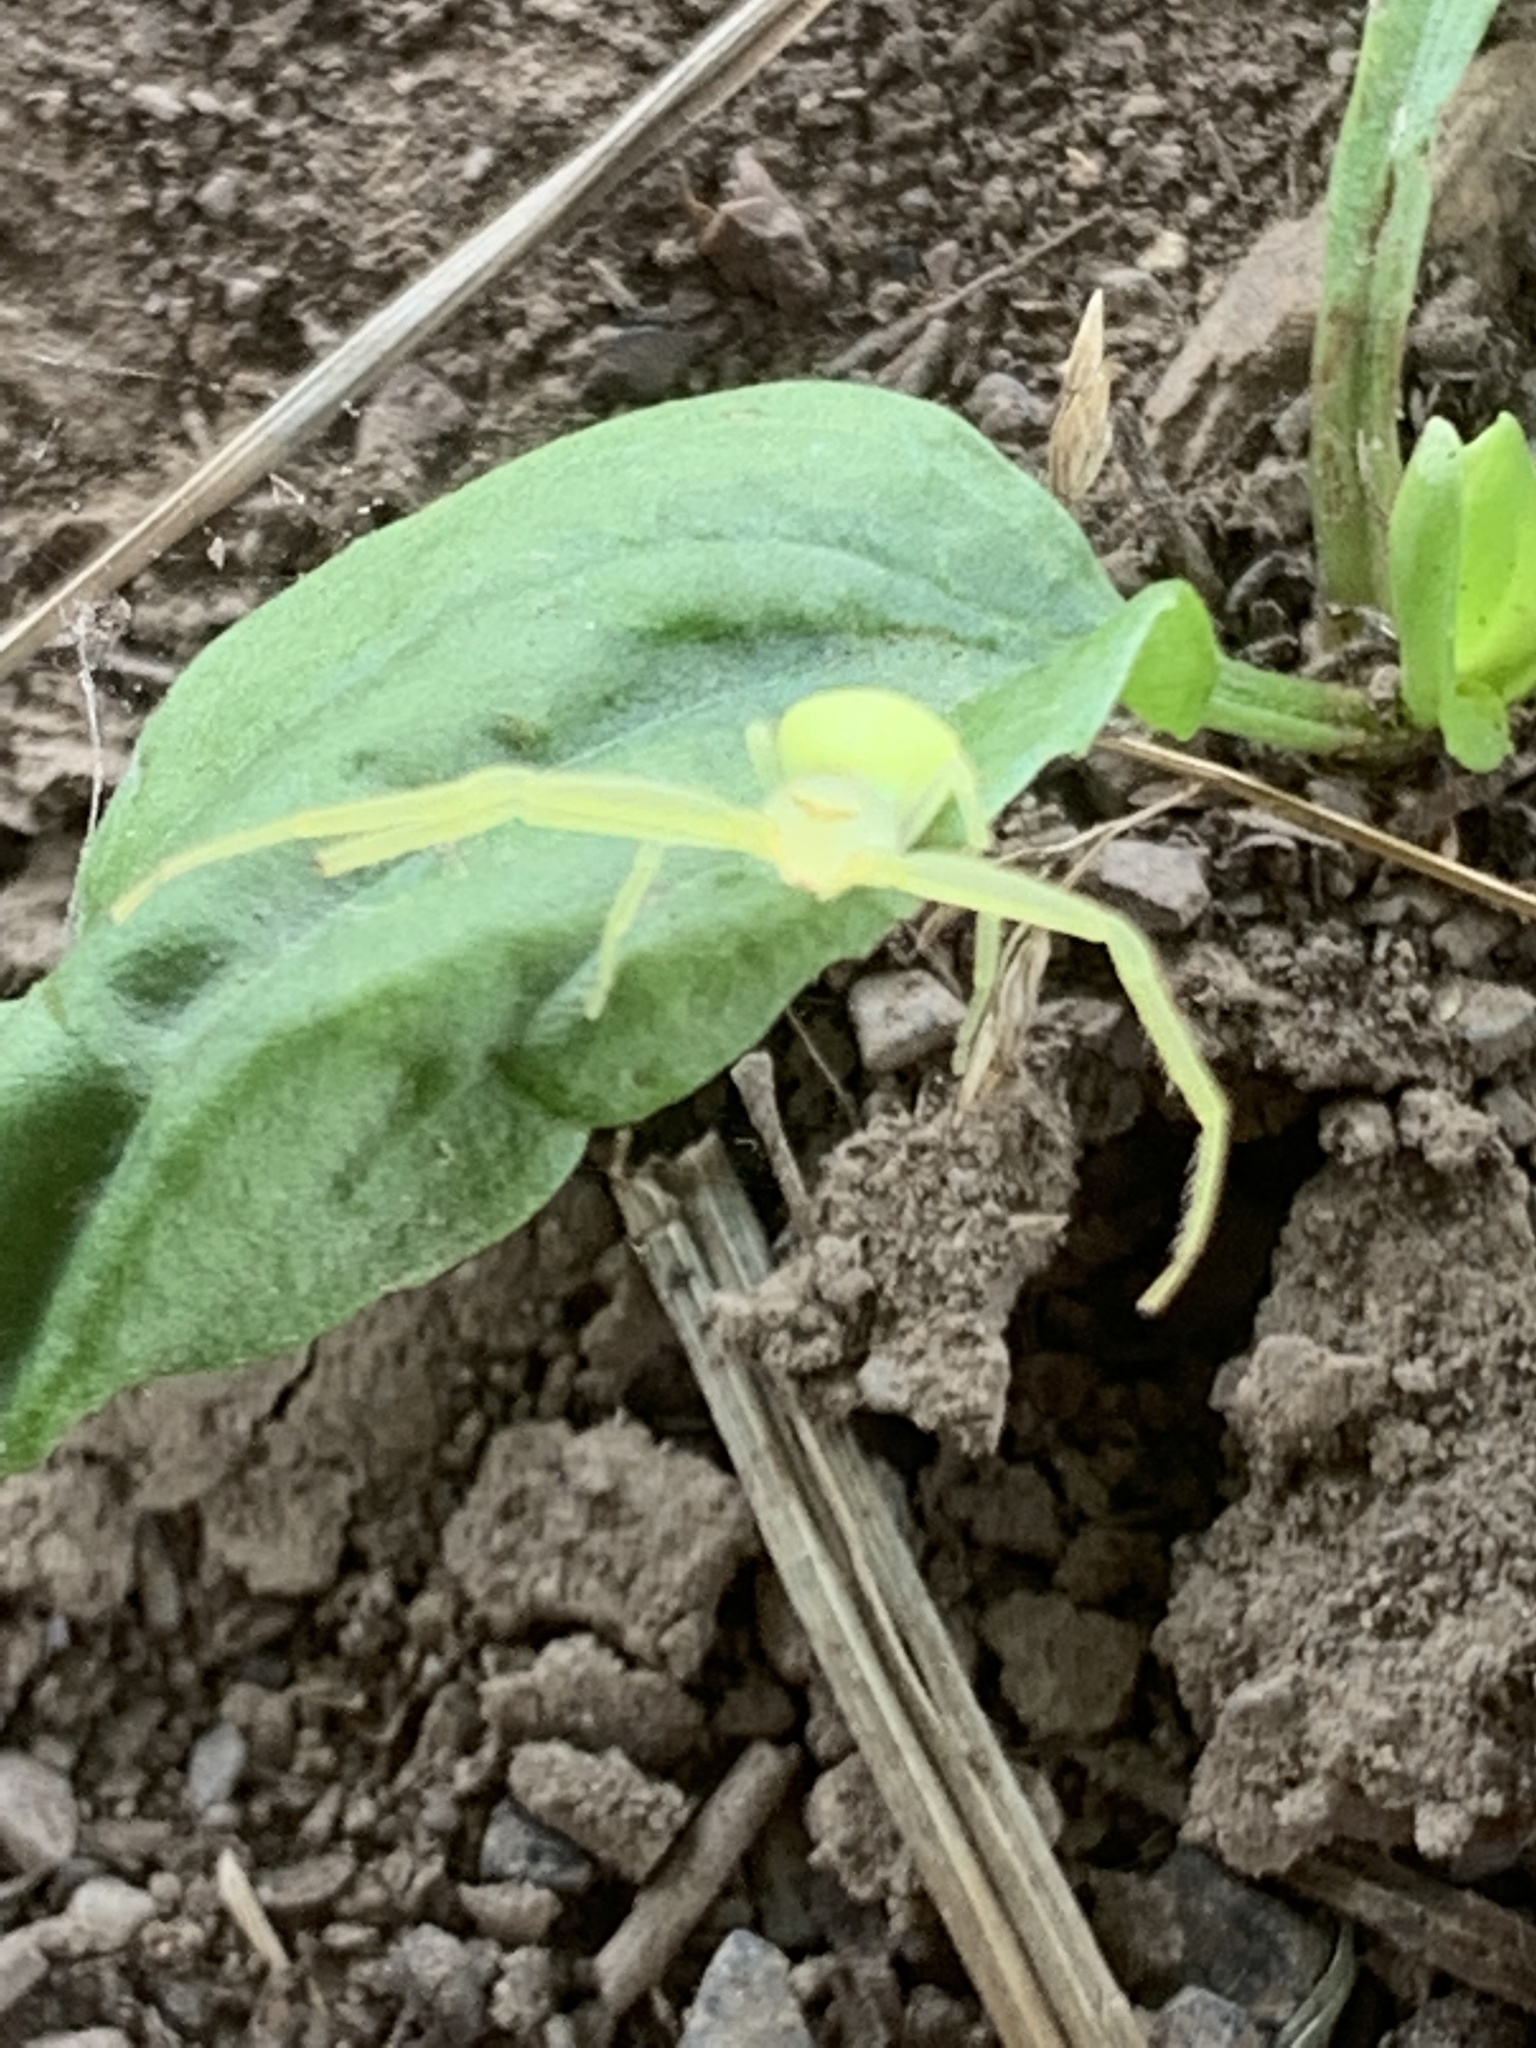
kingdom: Animalia
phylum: Arthropoda
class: Arachnida
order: Araneae
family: Thomisidae
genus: Misumessus
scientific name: Misumessus oblongus
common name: American green crab spider
